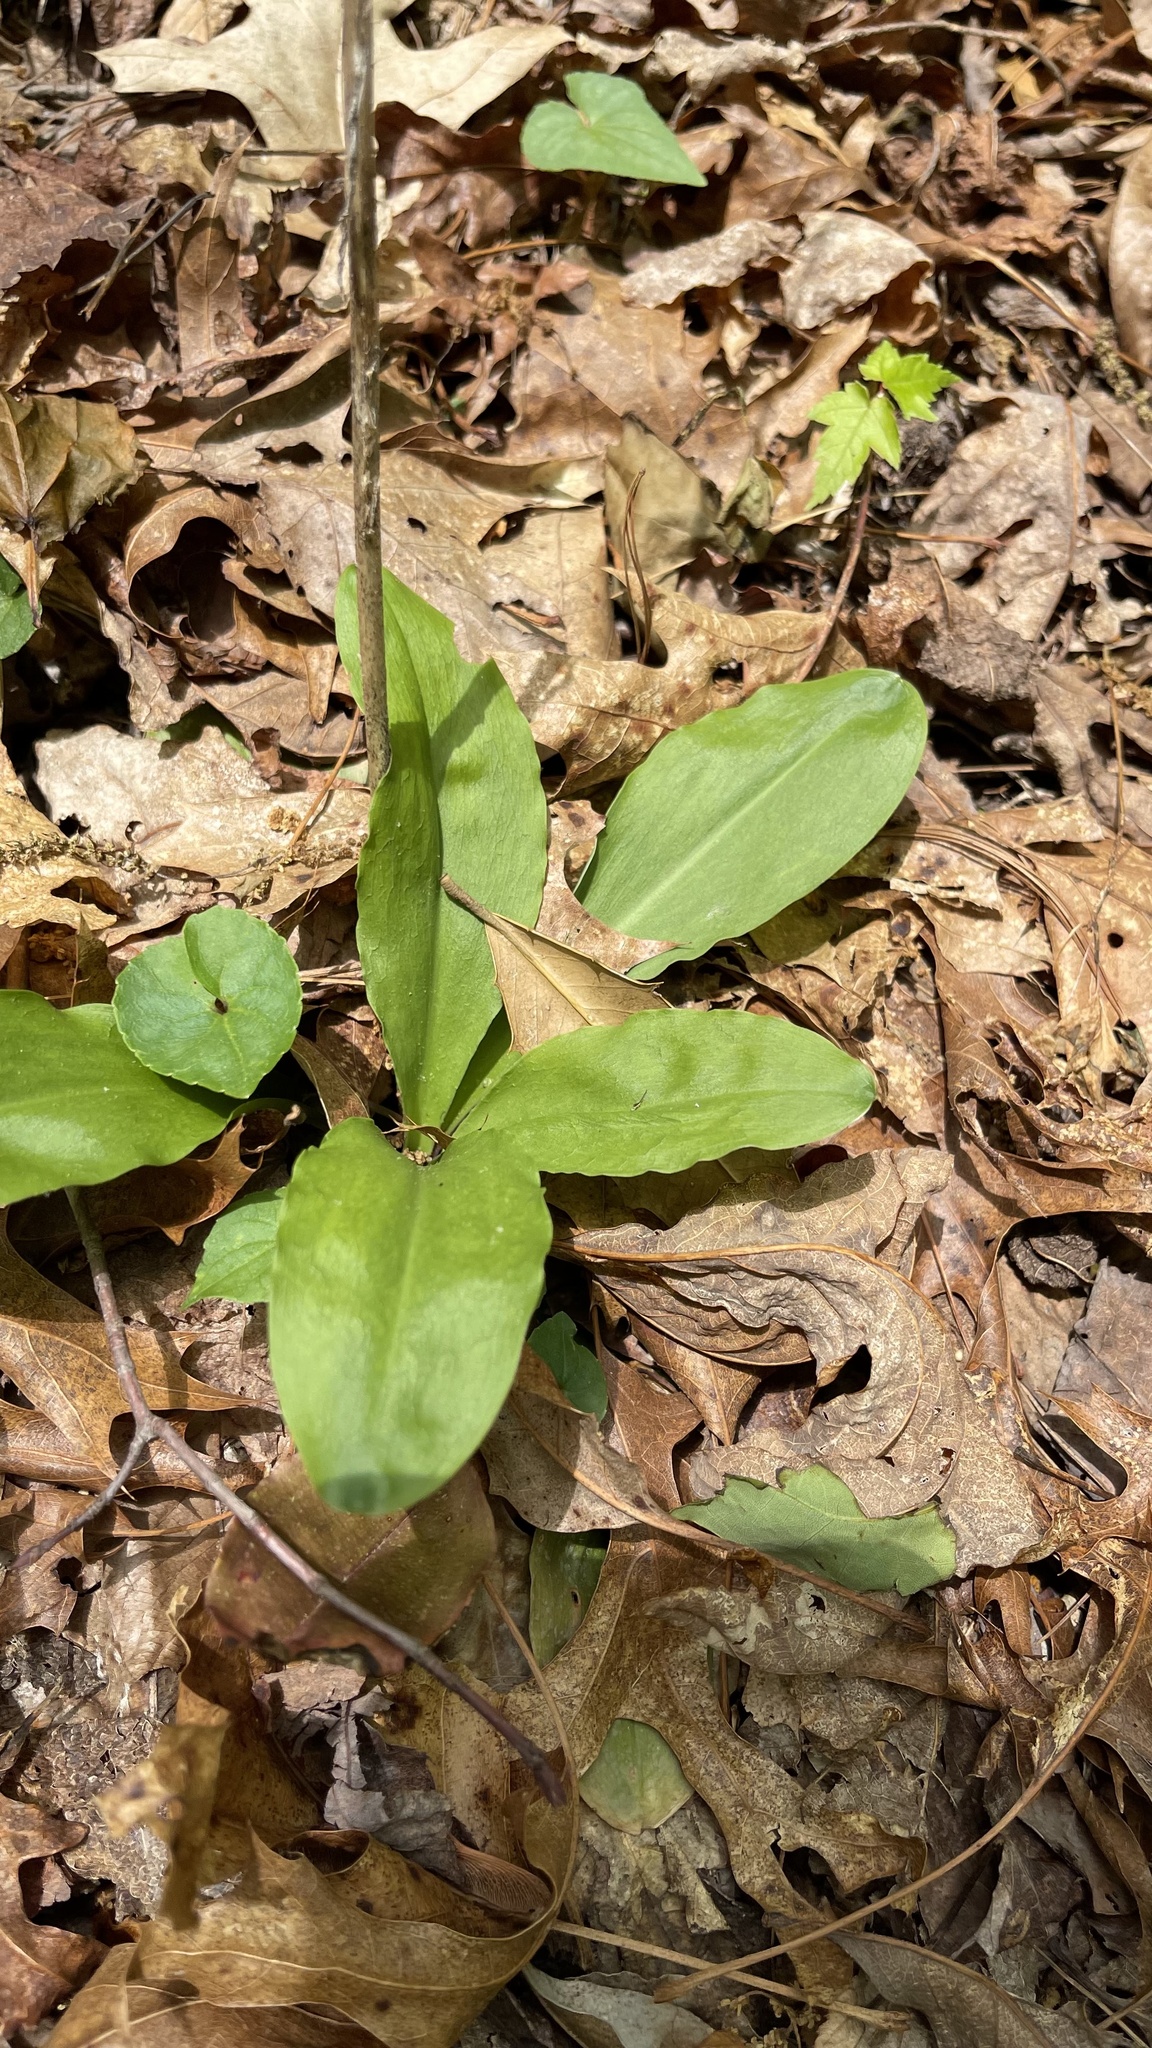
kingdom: Plantae
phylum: Tracheophyta
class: Liliopsida
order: Liliales
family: Melanthiaceae
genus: Chamaelirium
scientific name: Chamaelirium luteum
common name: Fairy-wand
